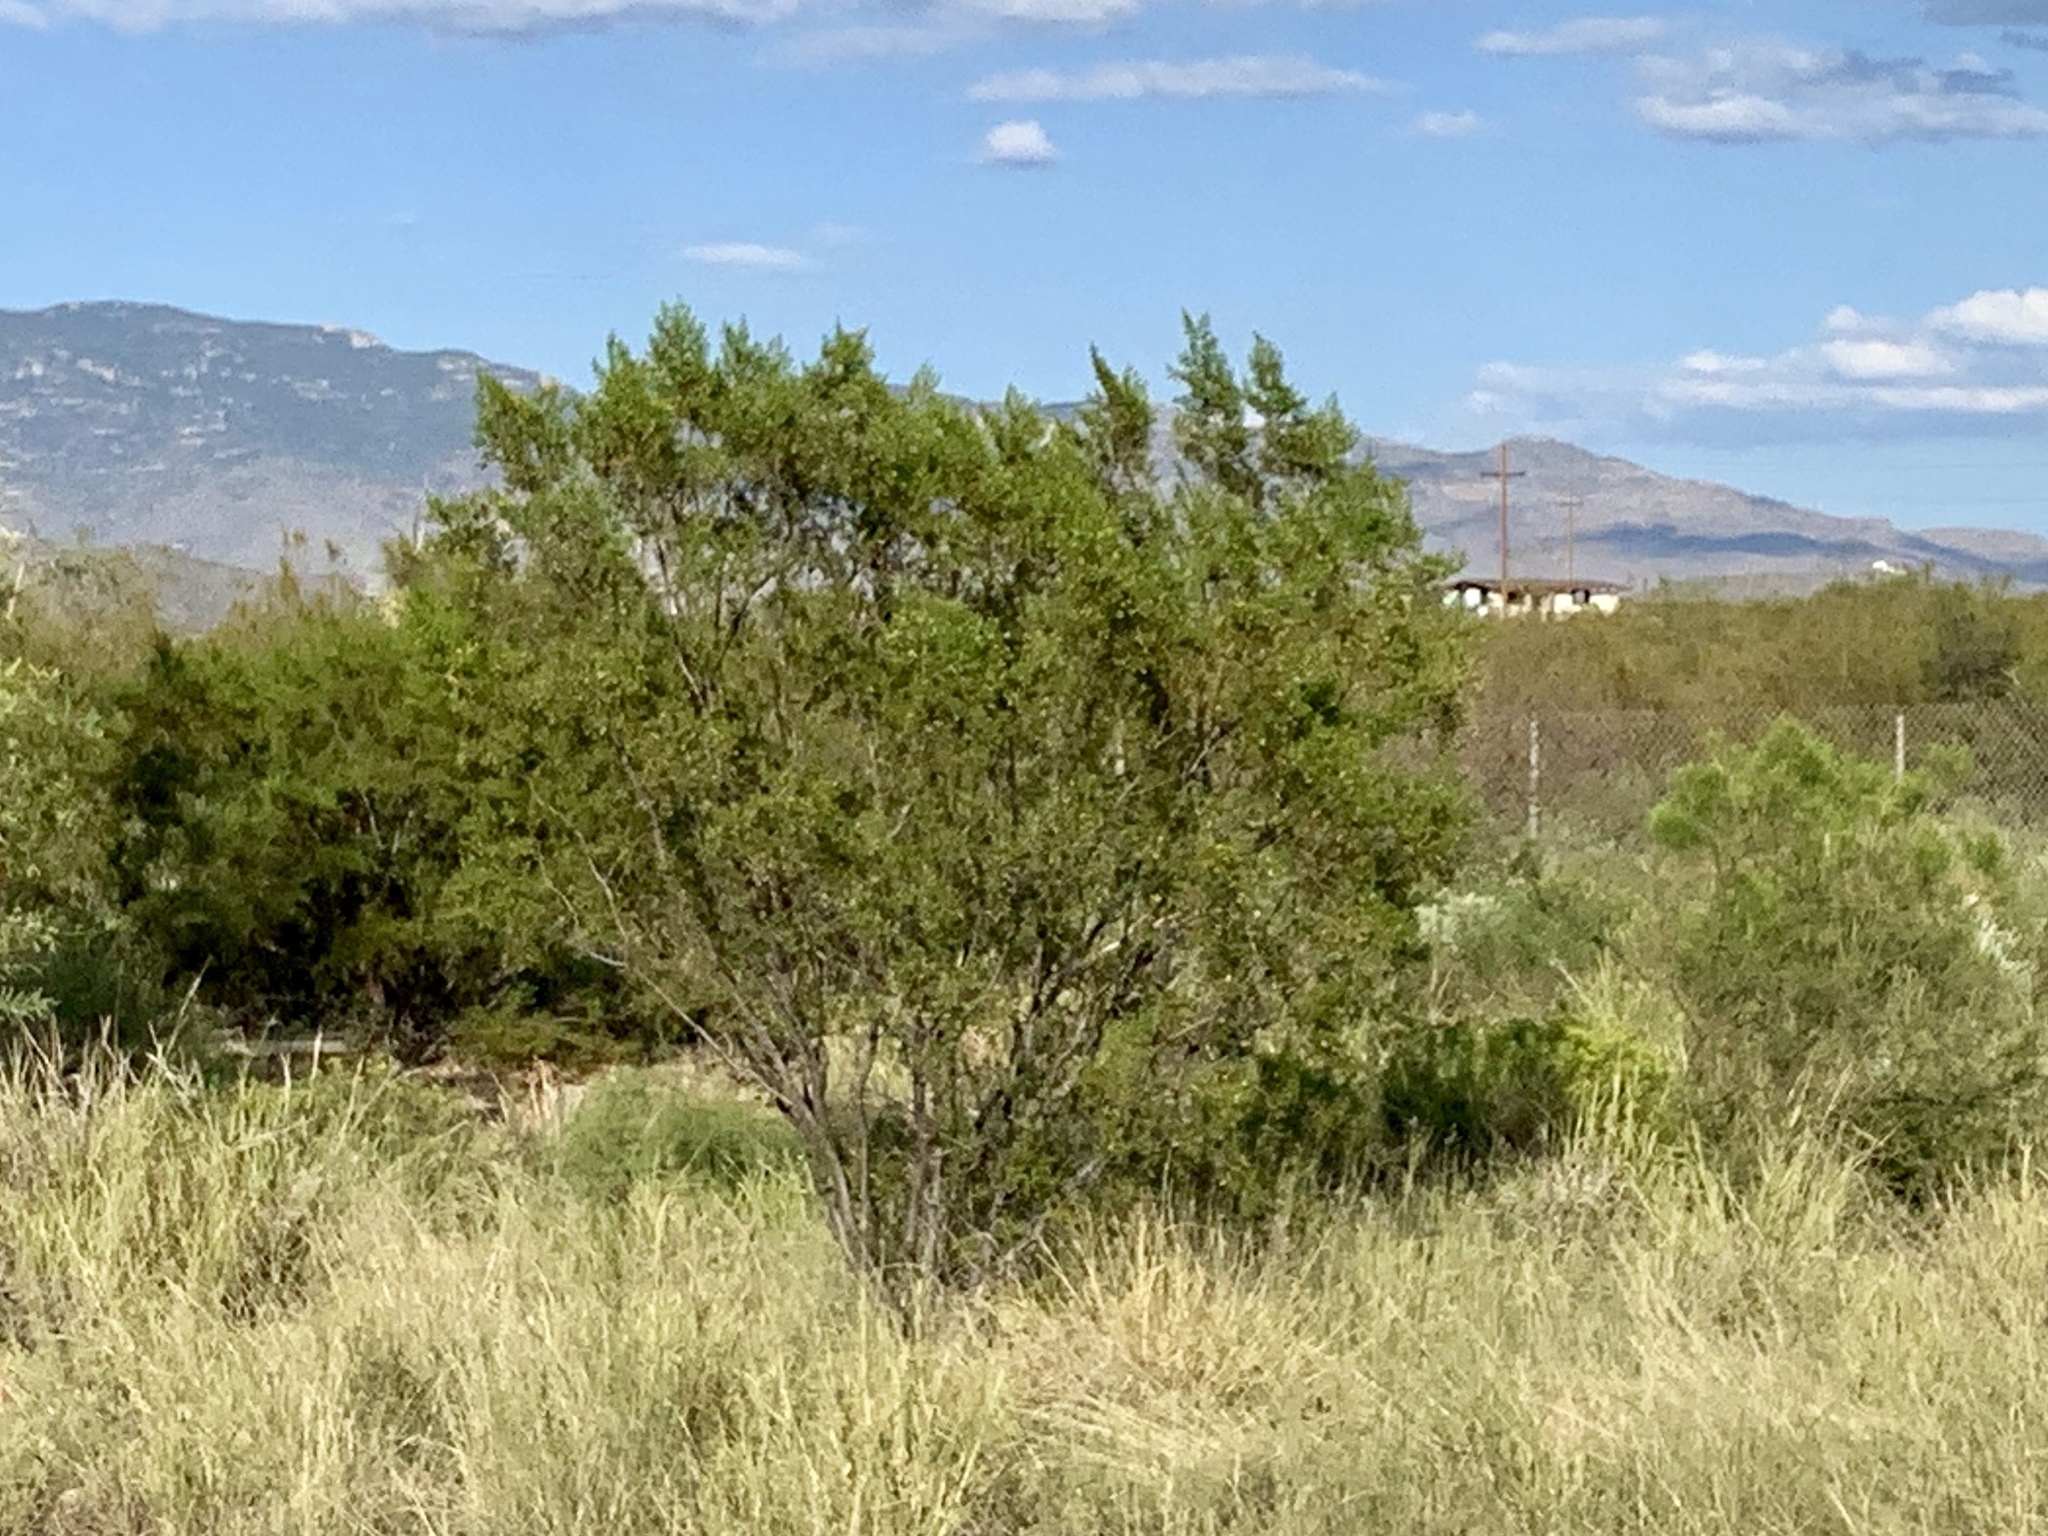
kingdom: Plantae
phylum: Tracheophyta
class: Magnoliopsida
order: Zygophyllales
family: Zygophyllaceae
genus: Larrea
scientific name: Larrea tridentata
